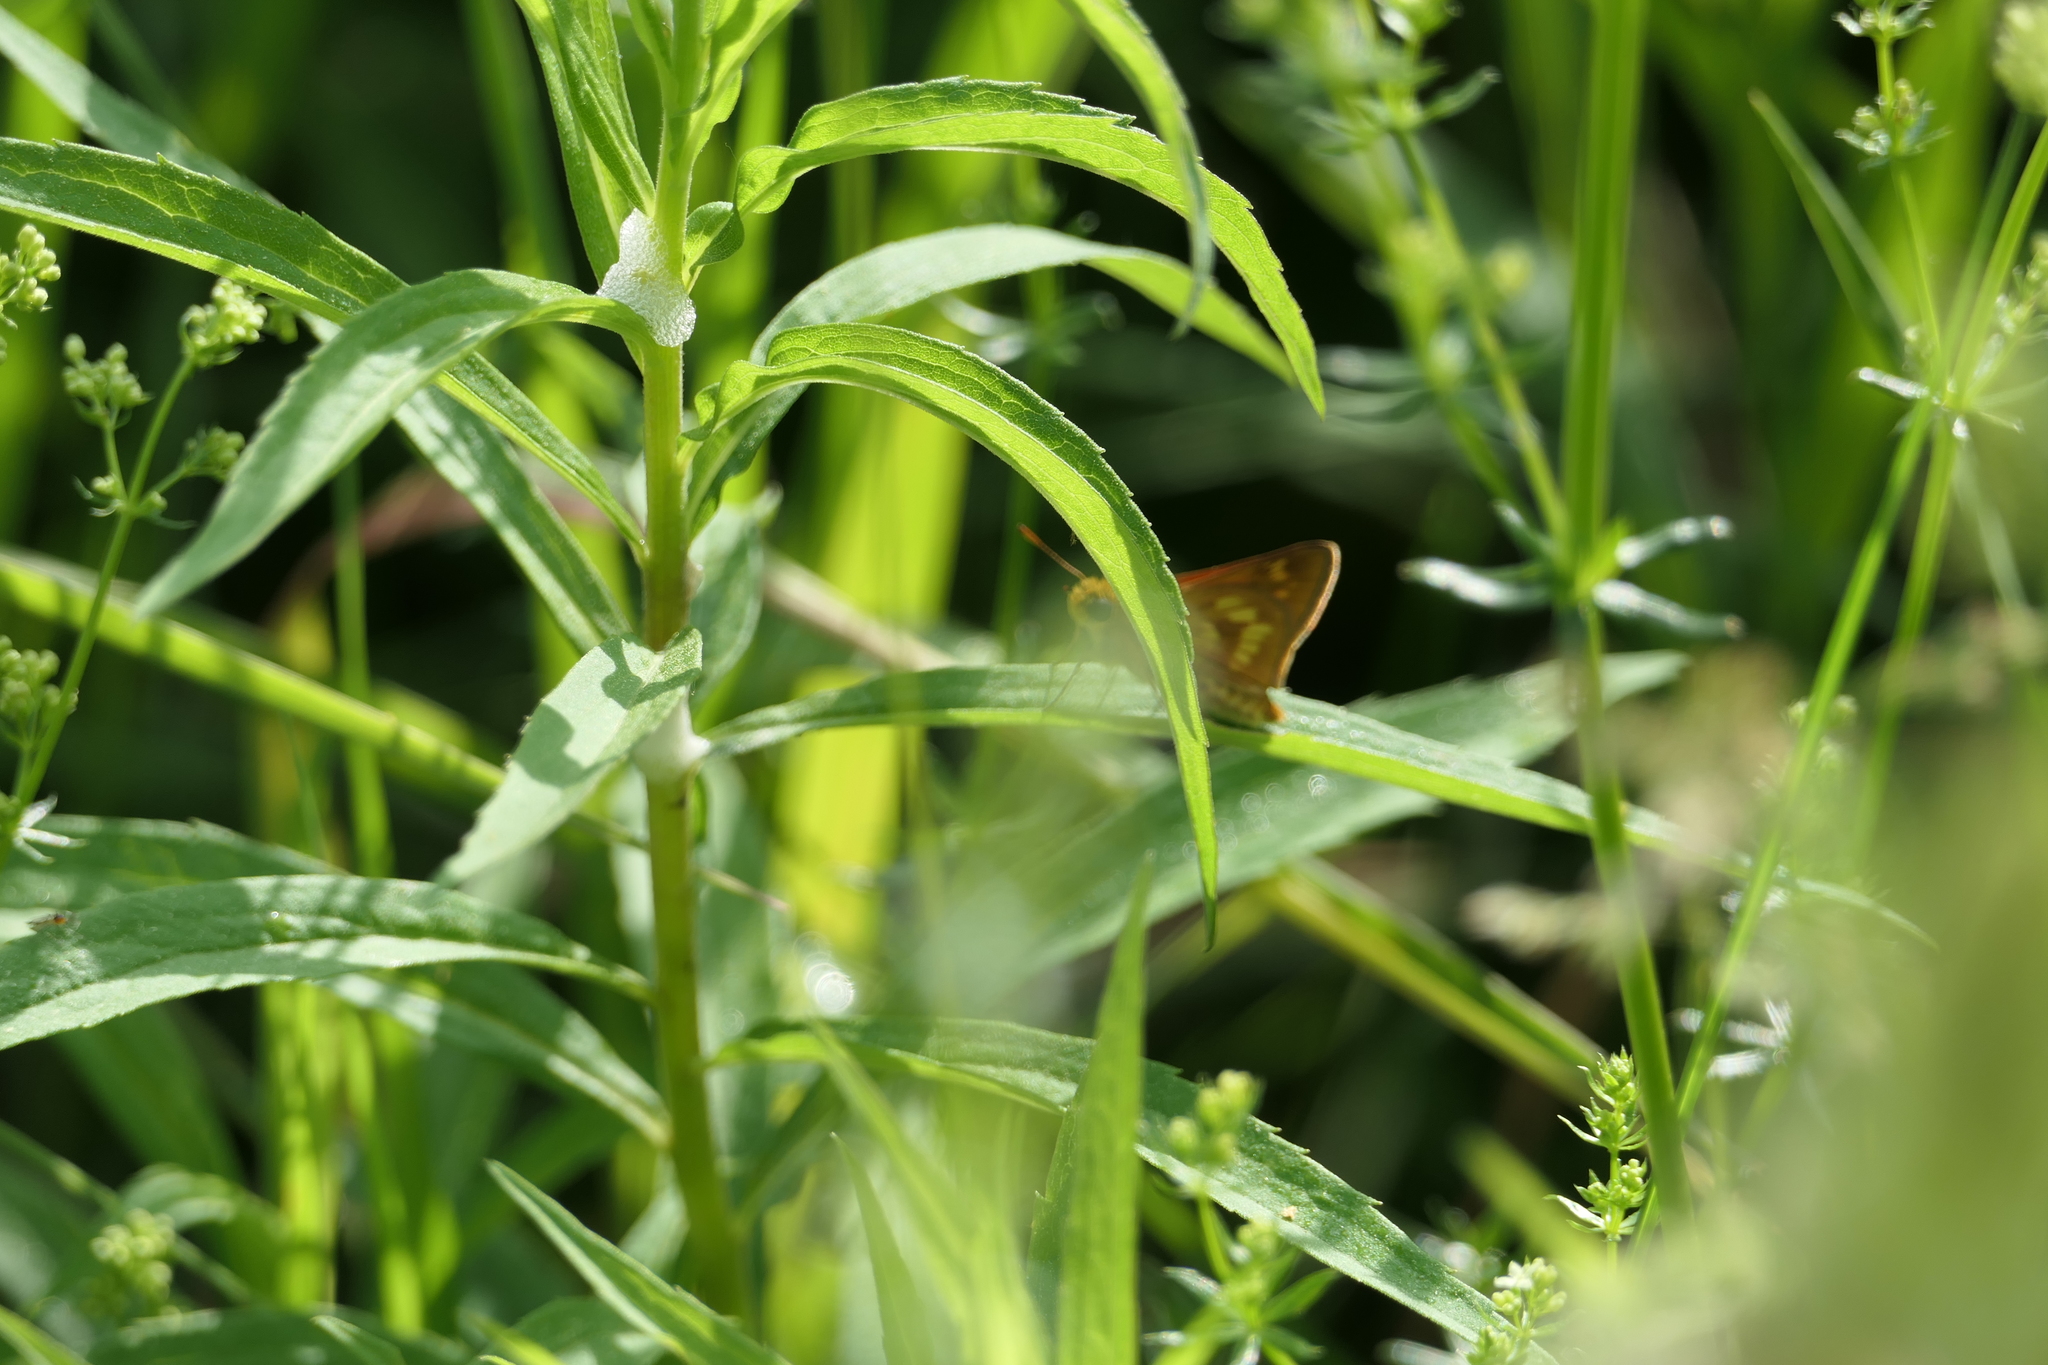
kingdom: Animalia
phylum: Arthropoda
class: Insecta
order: Lepidoptera
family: Hesperiidae
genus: Polites
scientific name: Polites mystic
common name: Long dash
